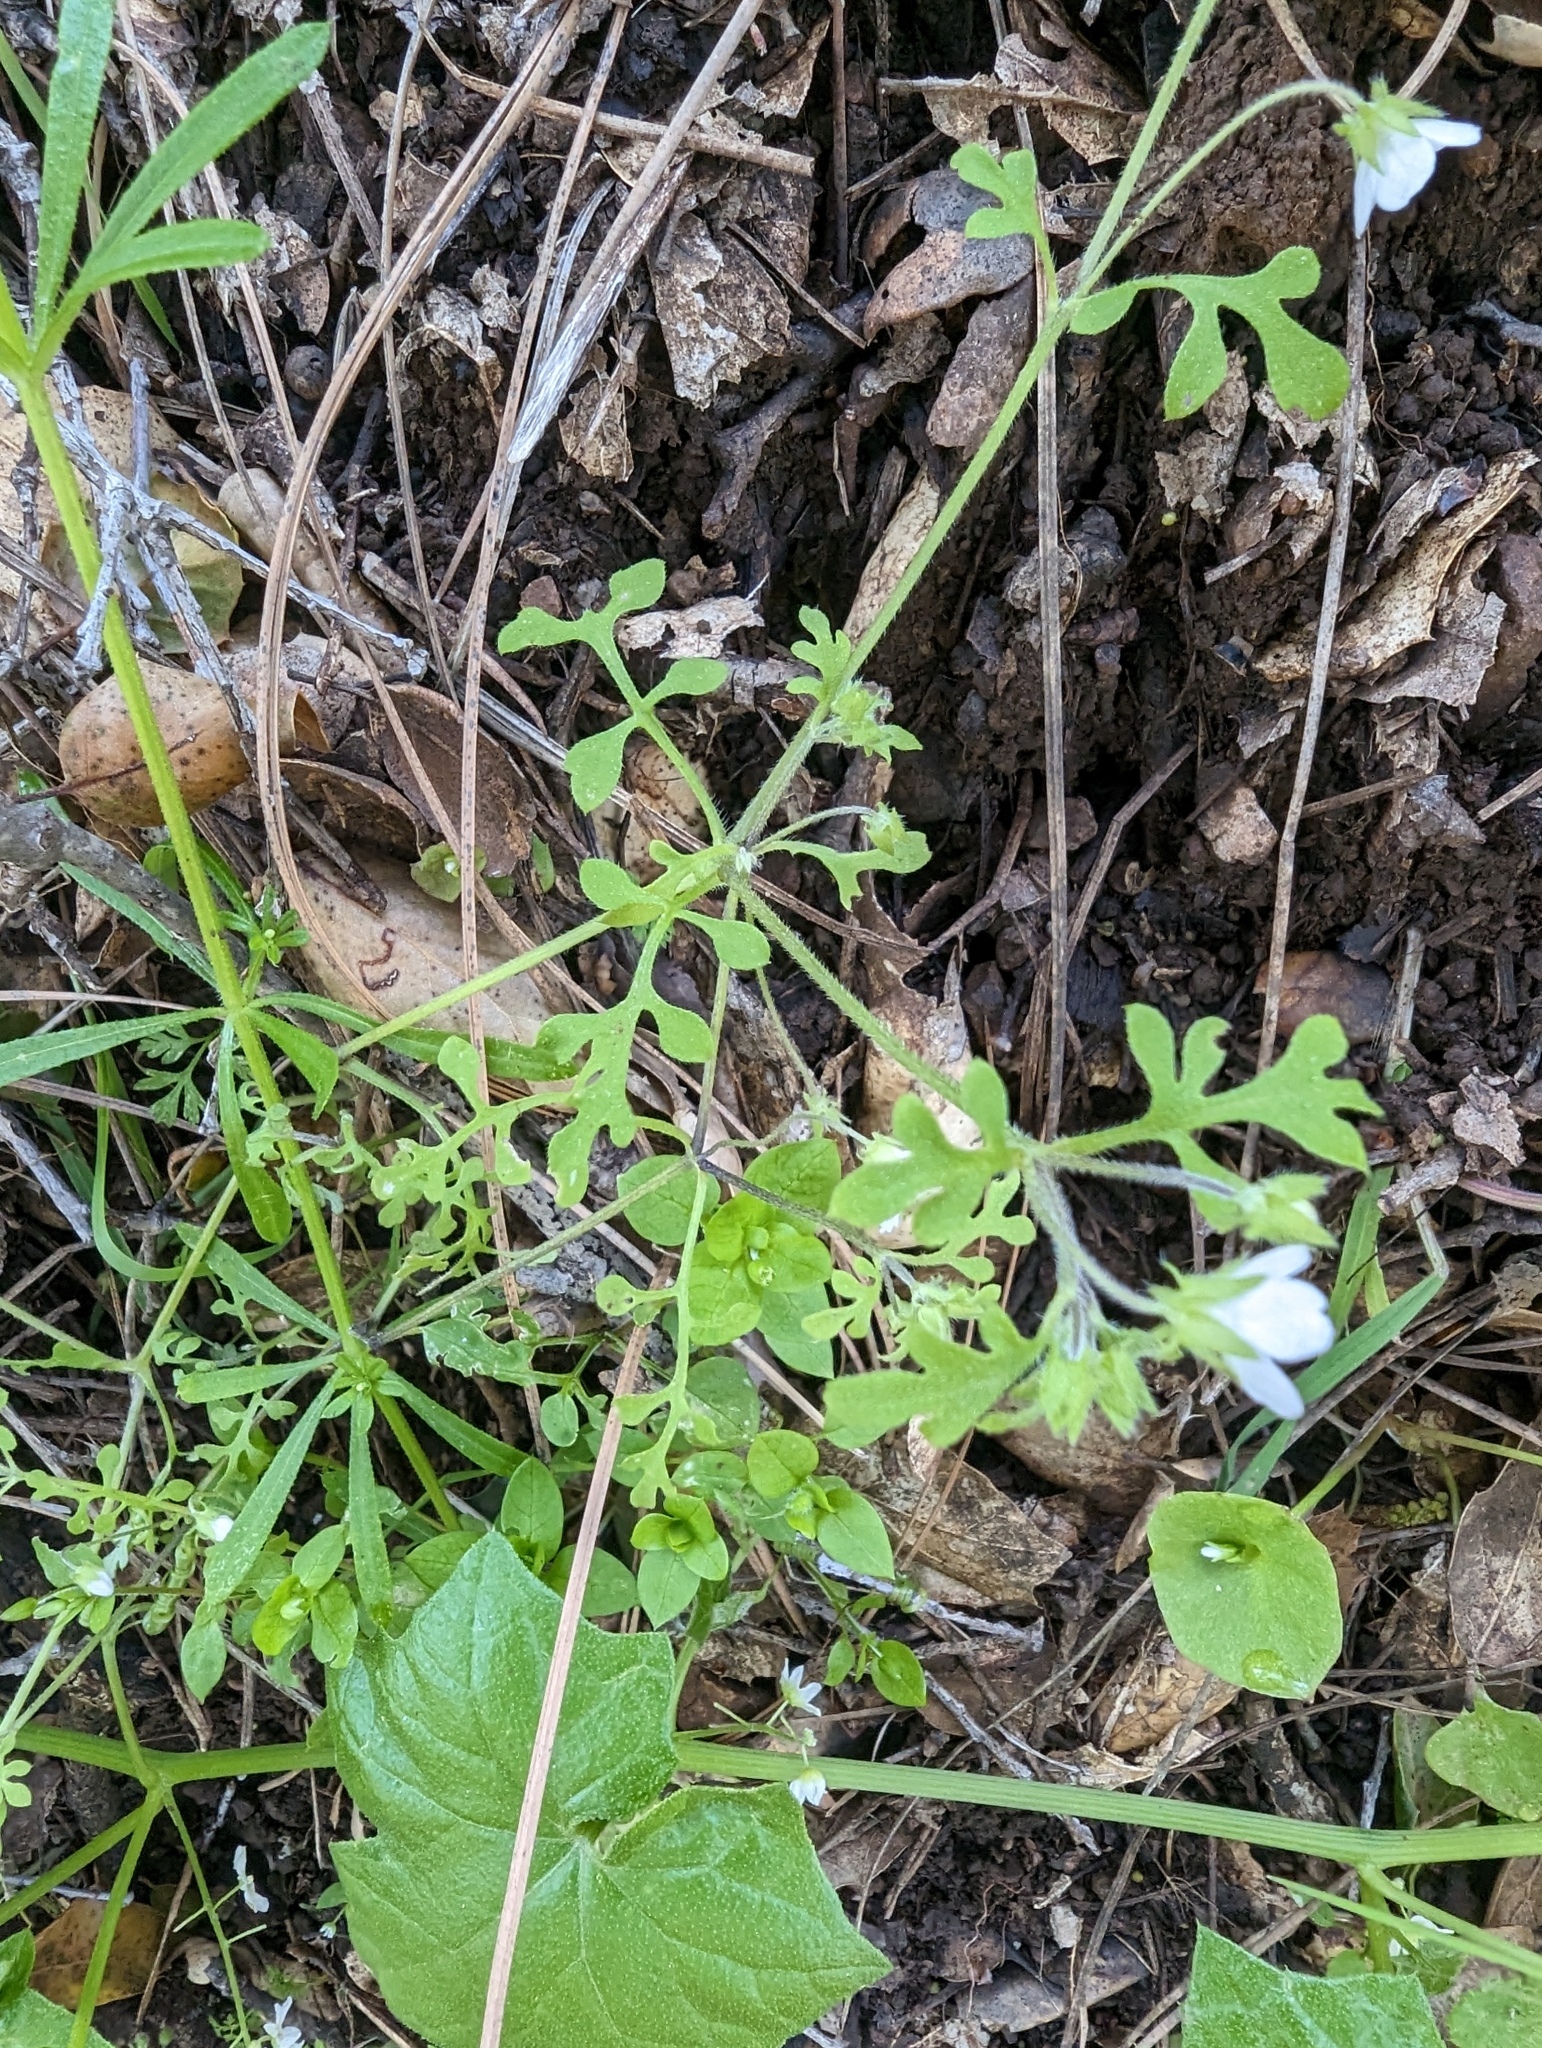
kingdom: Plantae
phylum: Tracheophyta
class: Magnoliopsida
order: Boraginales
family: Hydrophyllaceae
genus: Nemophila
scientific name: Nemophila heterophylla
